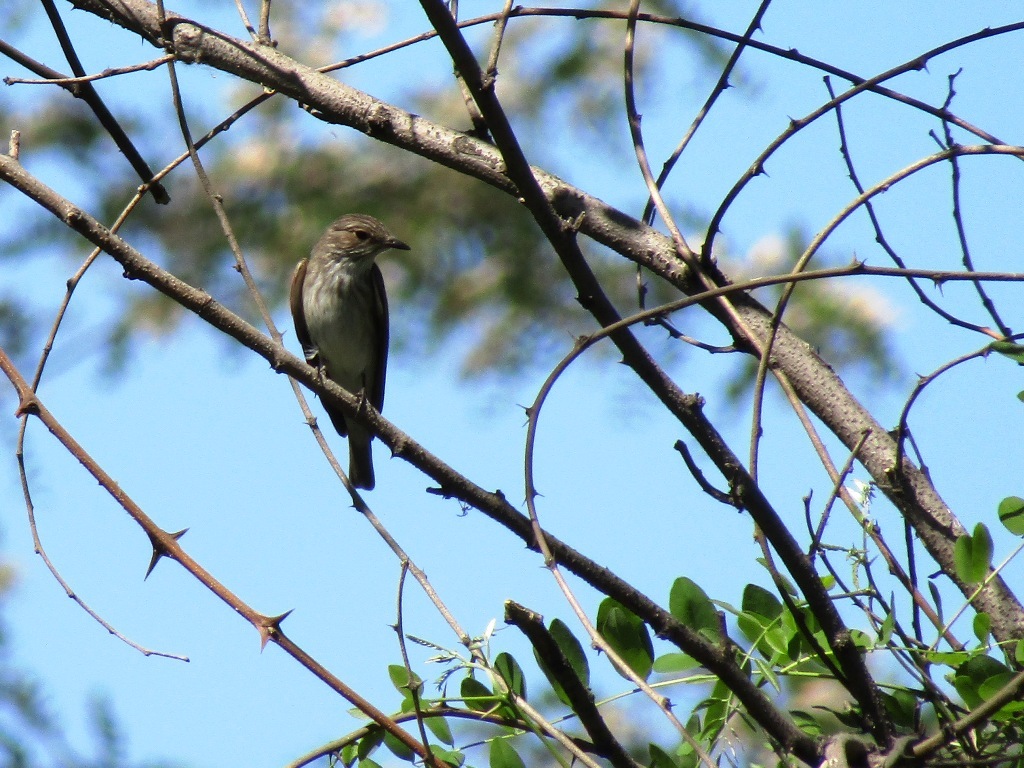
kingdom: Animalia
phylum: Chordata
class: Aves
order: Passeriformes
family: Muscicapidae
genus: Muscicapa
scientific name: Muscicapa striata
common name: Spotted flycatcher
